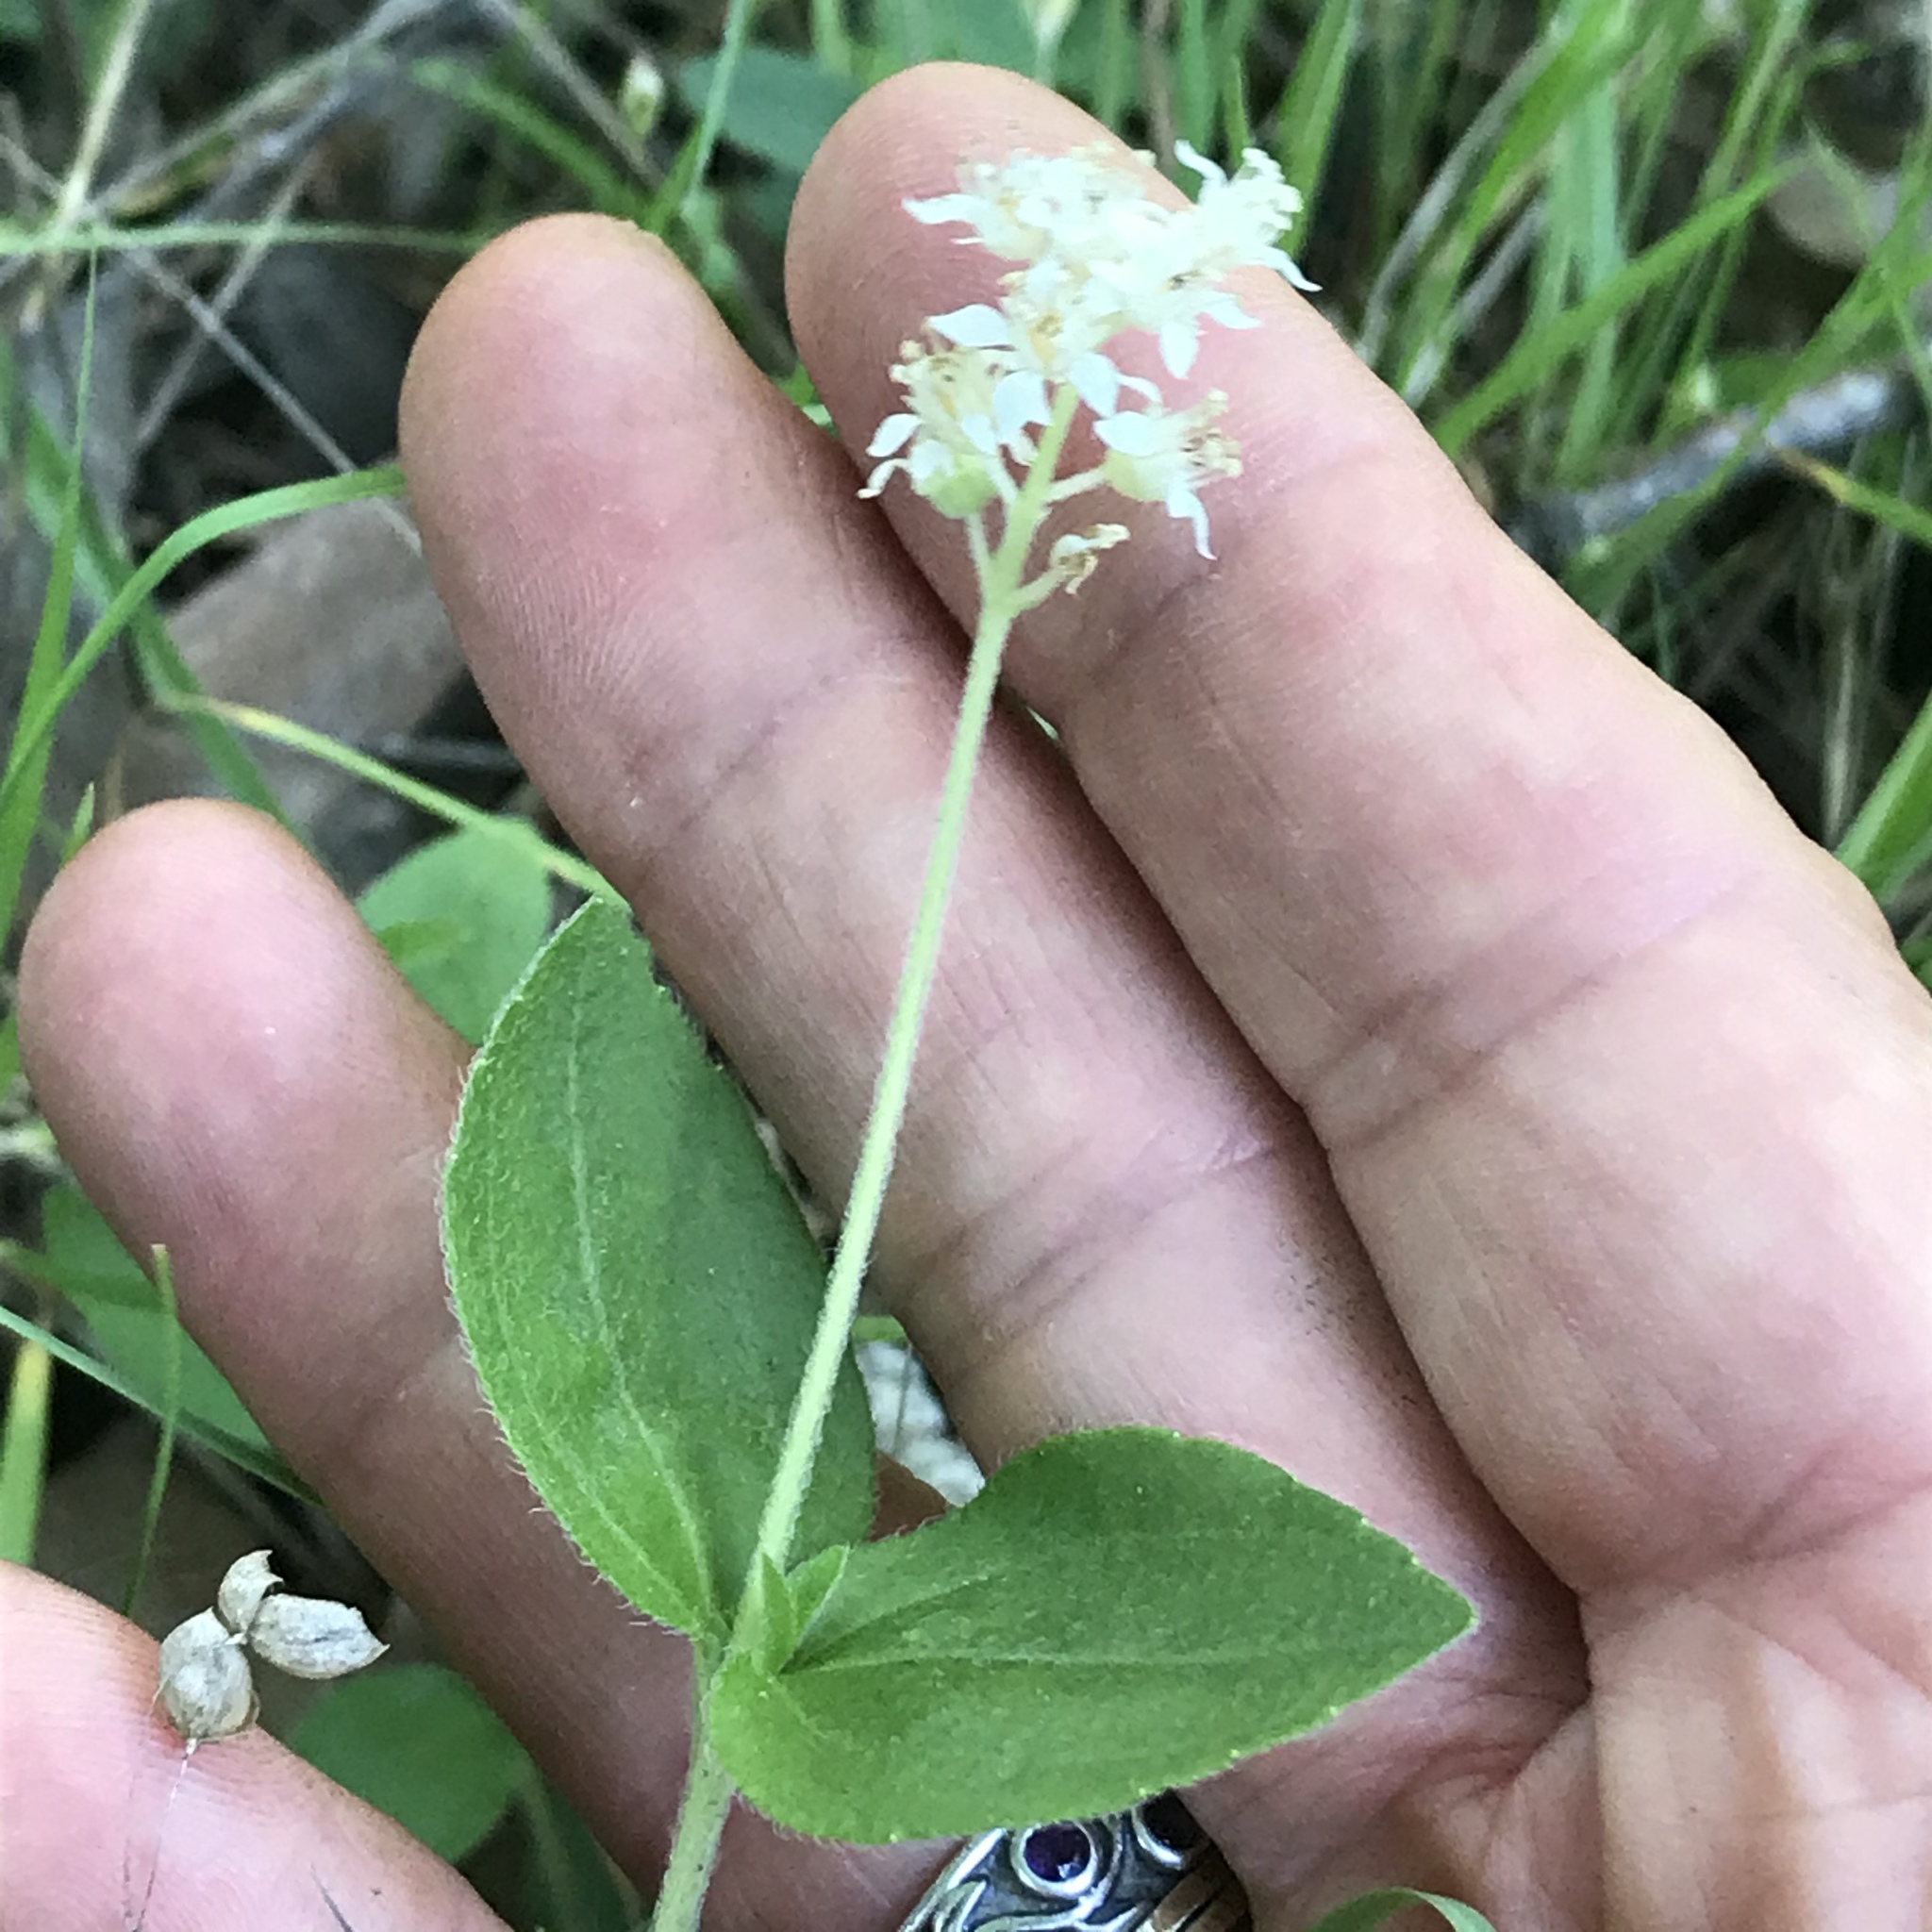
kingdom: Plantae
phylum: Tracheophyta
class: Magnoliopsida
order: Cornales
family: Hydrangeaceae
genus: Whipplea
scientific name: Whipplea modesta
